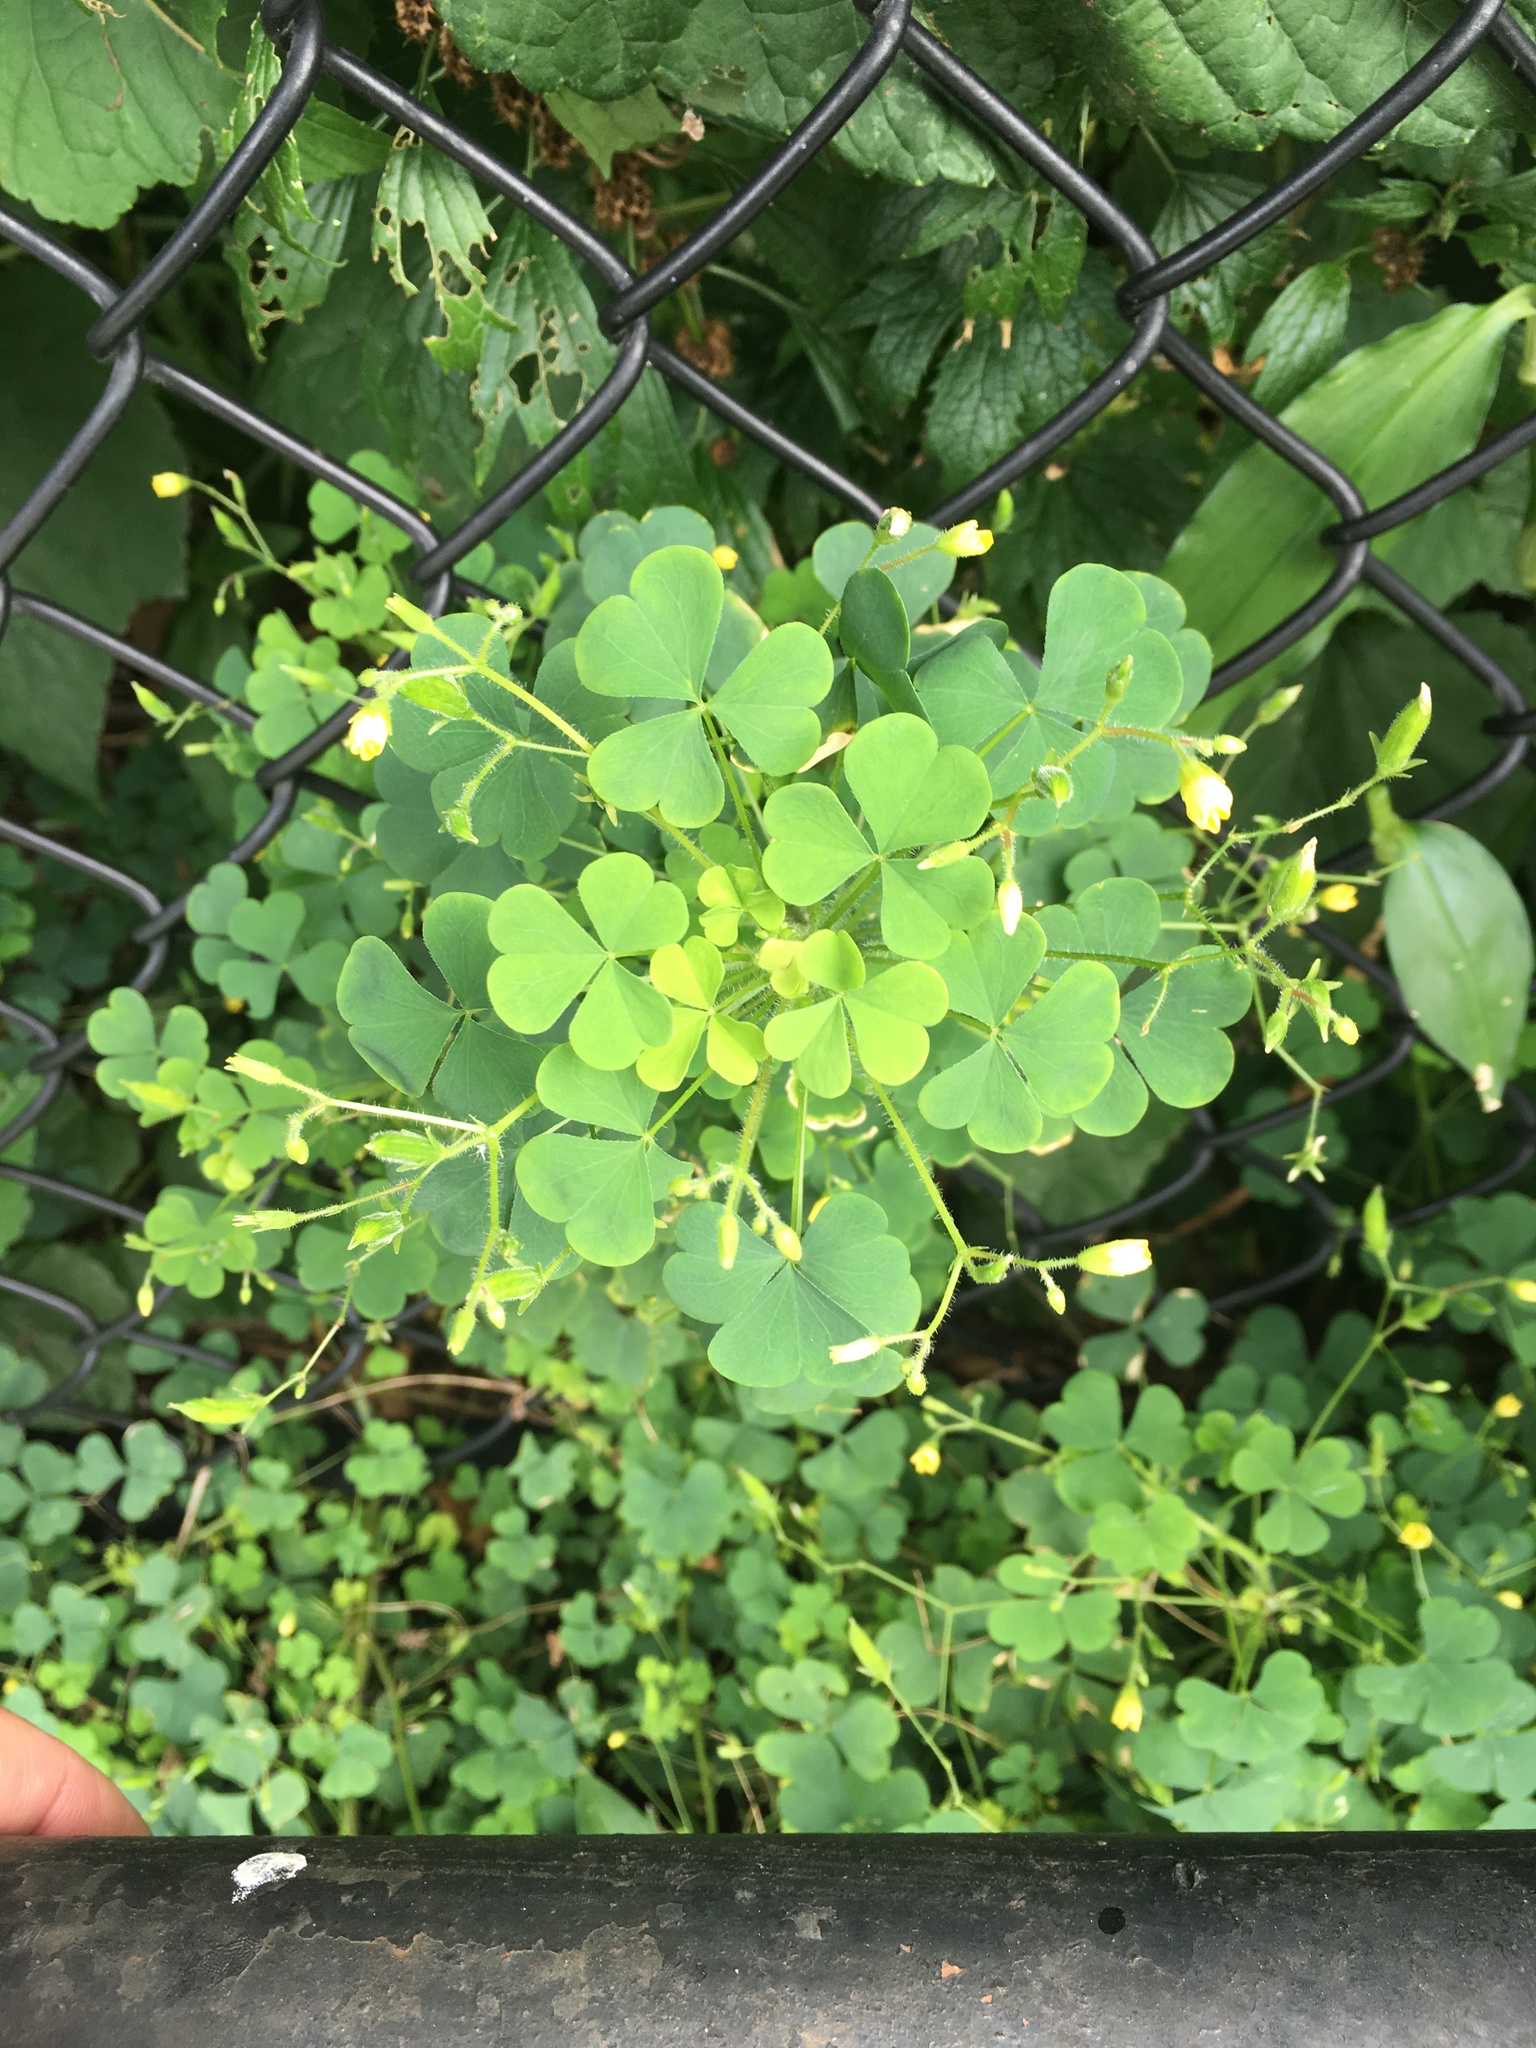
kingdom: Plantae
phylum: Tracheophyta
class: Magnoliopsida
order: Oxalidales
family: Oxalidaceae
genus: Oxalis
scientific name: Oxalis stricta
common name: Upright yellow-sorrel
